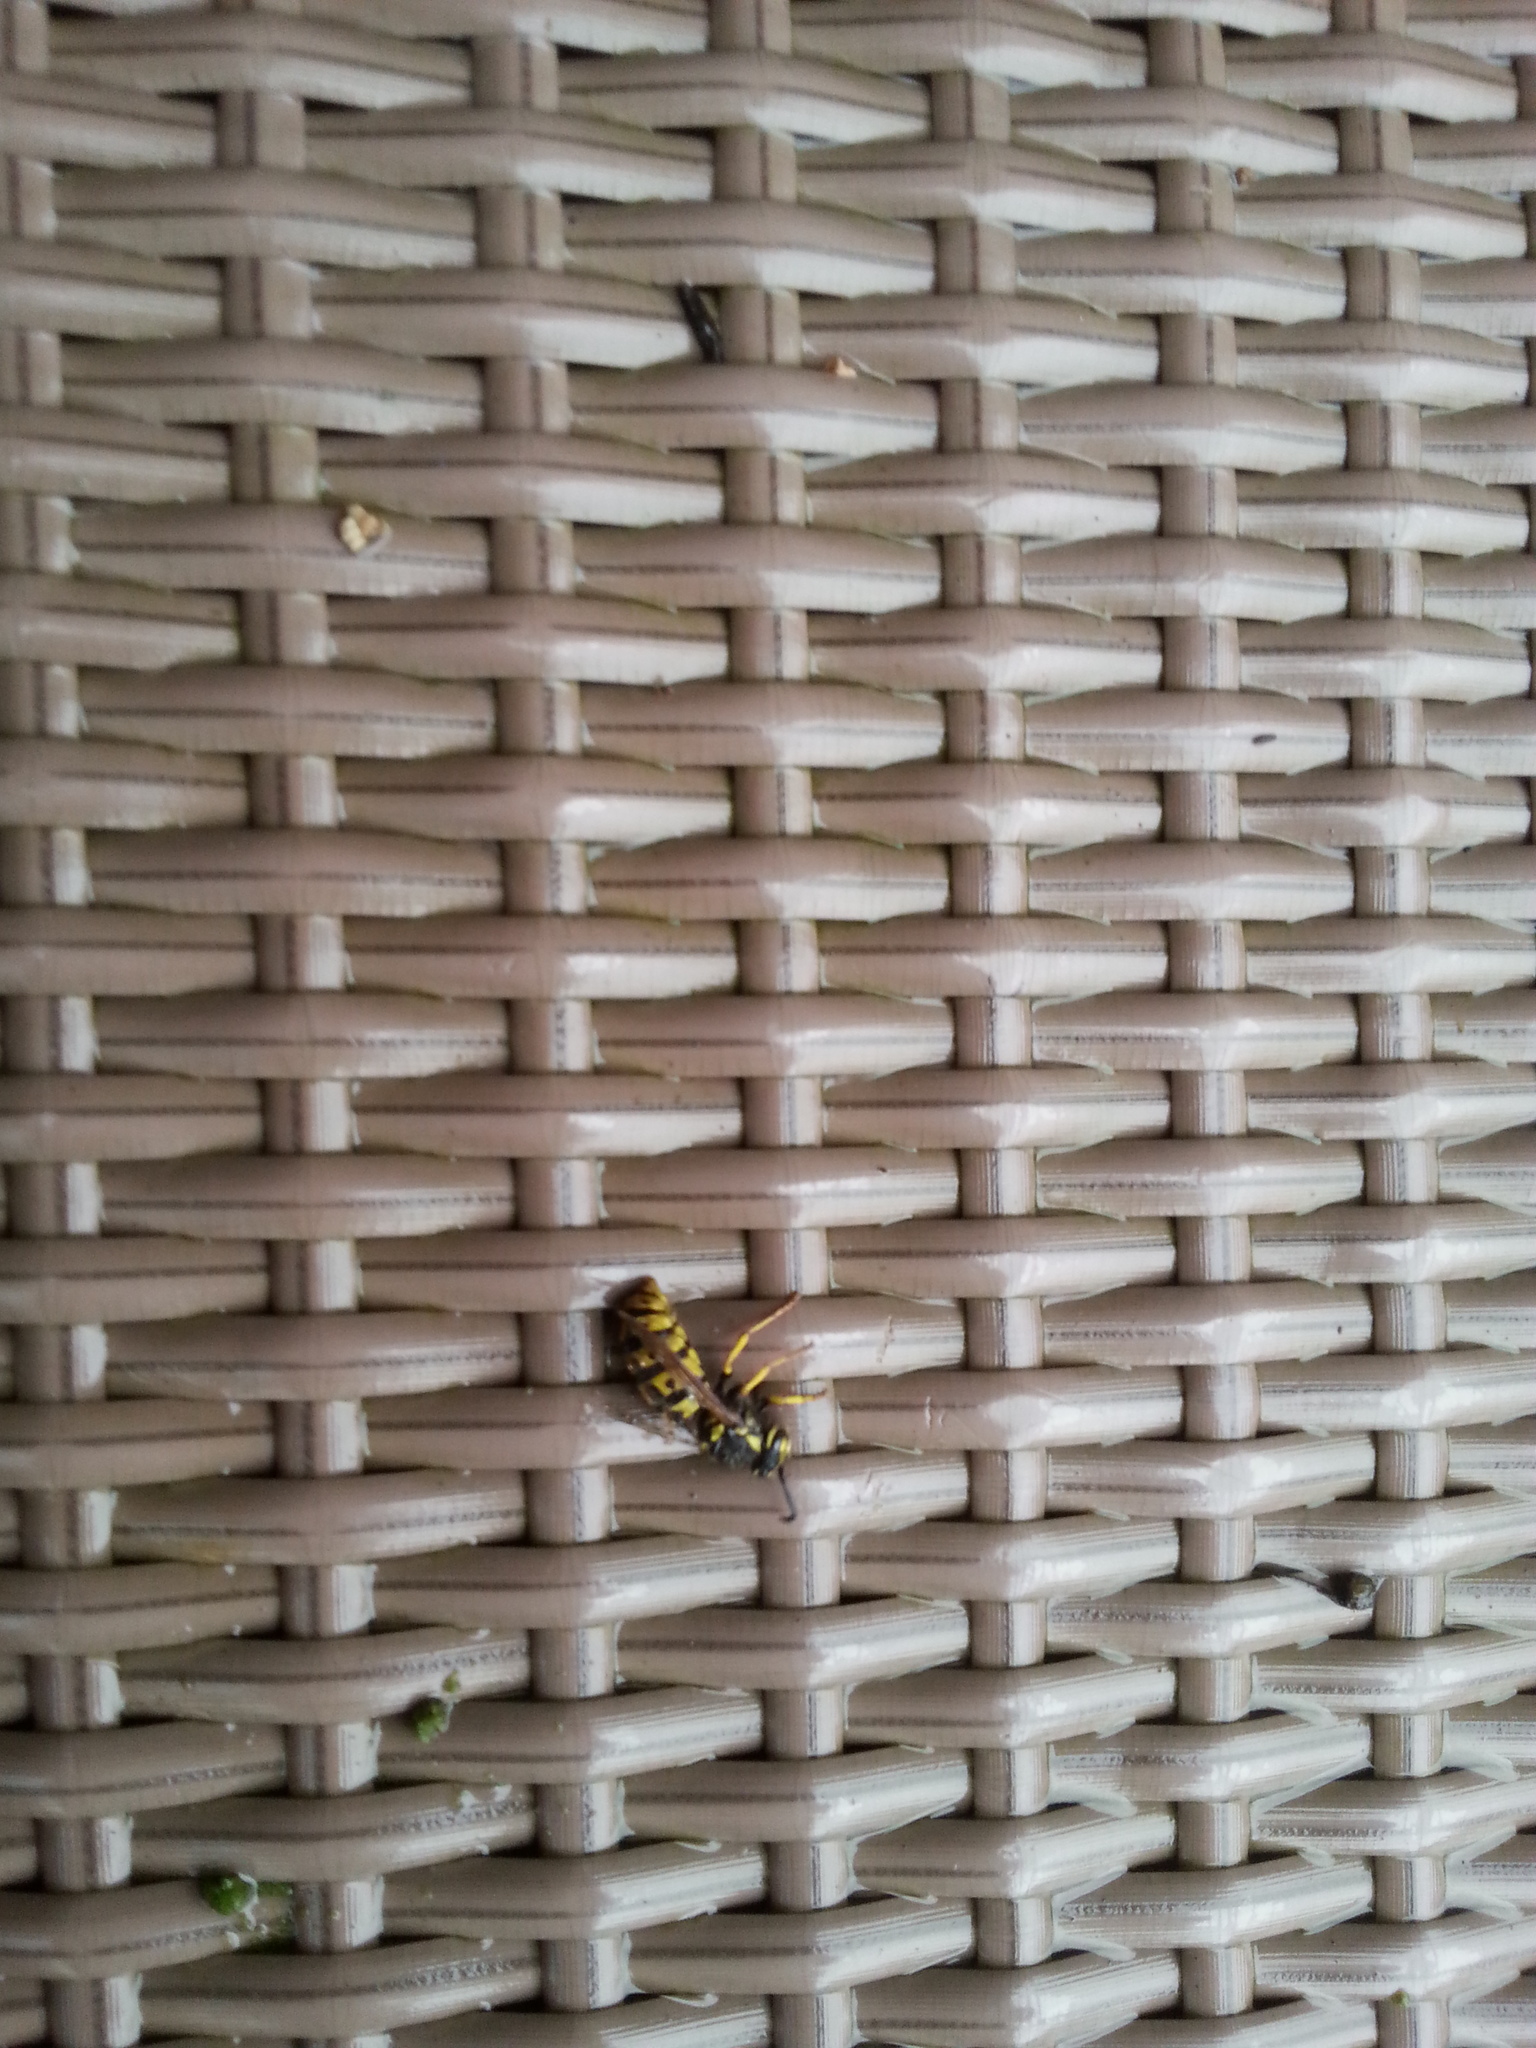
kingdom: Animalia
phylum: Arthropoda
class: Insecta
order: Hymenoptera
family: Vespidae
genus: Vespula
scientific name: Vespula germanica
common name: German wasp
